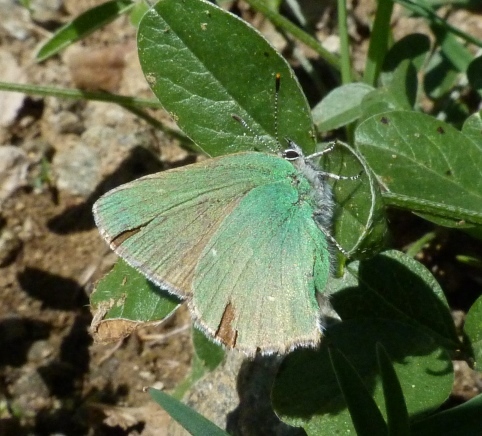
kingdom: Animalia
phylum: Arthropoda
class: Insecta
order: Lepidoptera
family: Lycaenidae
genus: Callophrys
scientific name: Callophrys rubi
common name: Green hairstreak
